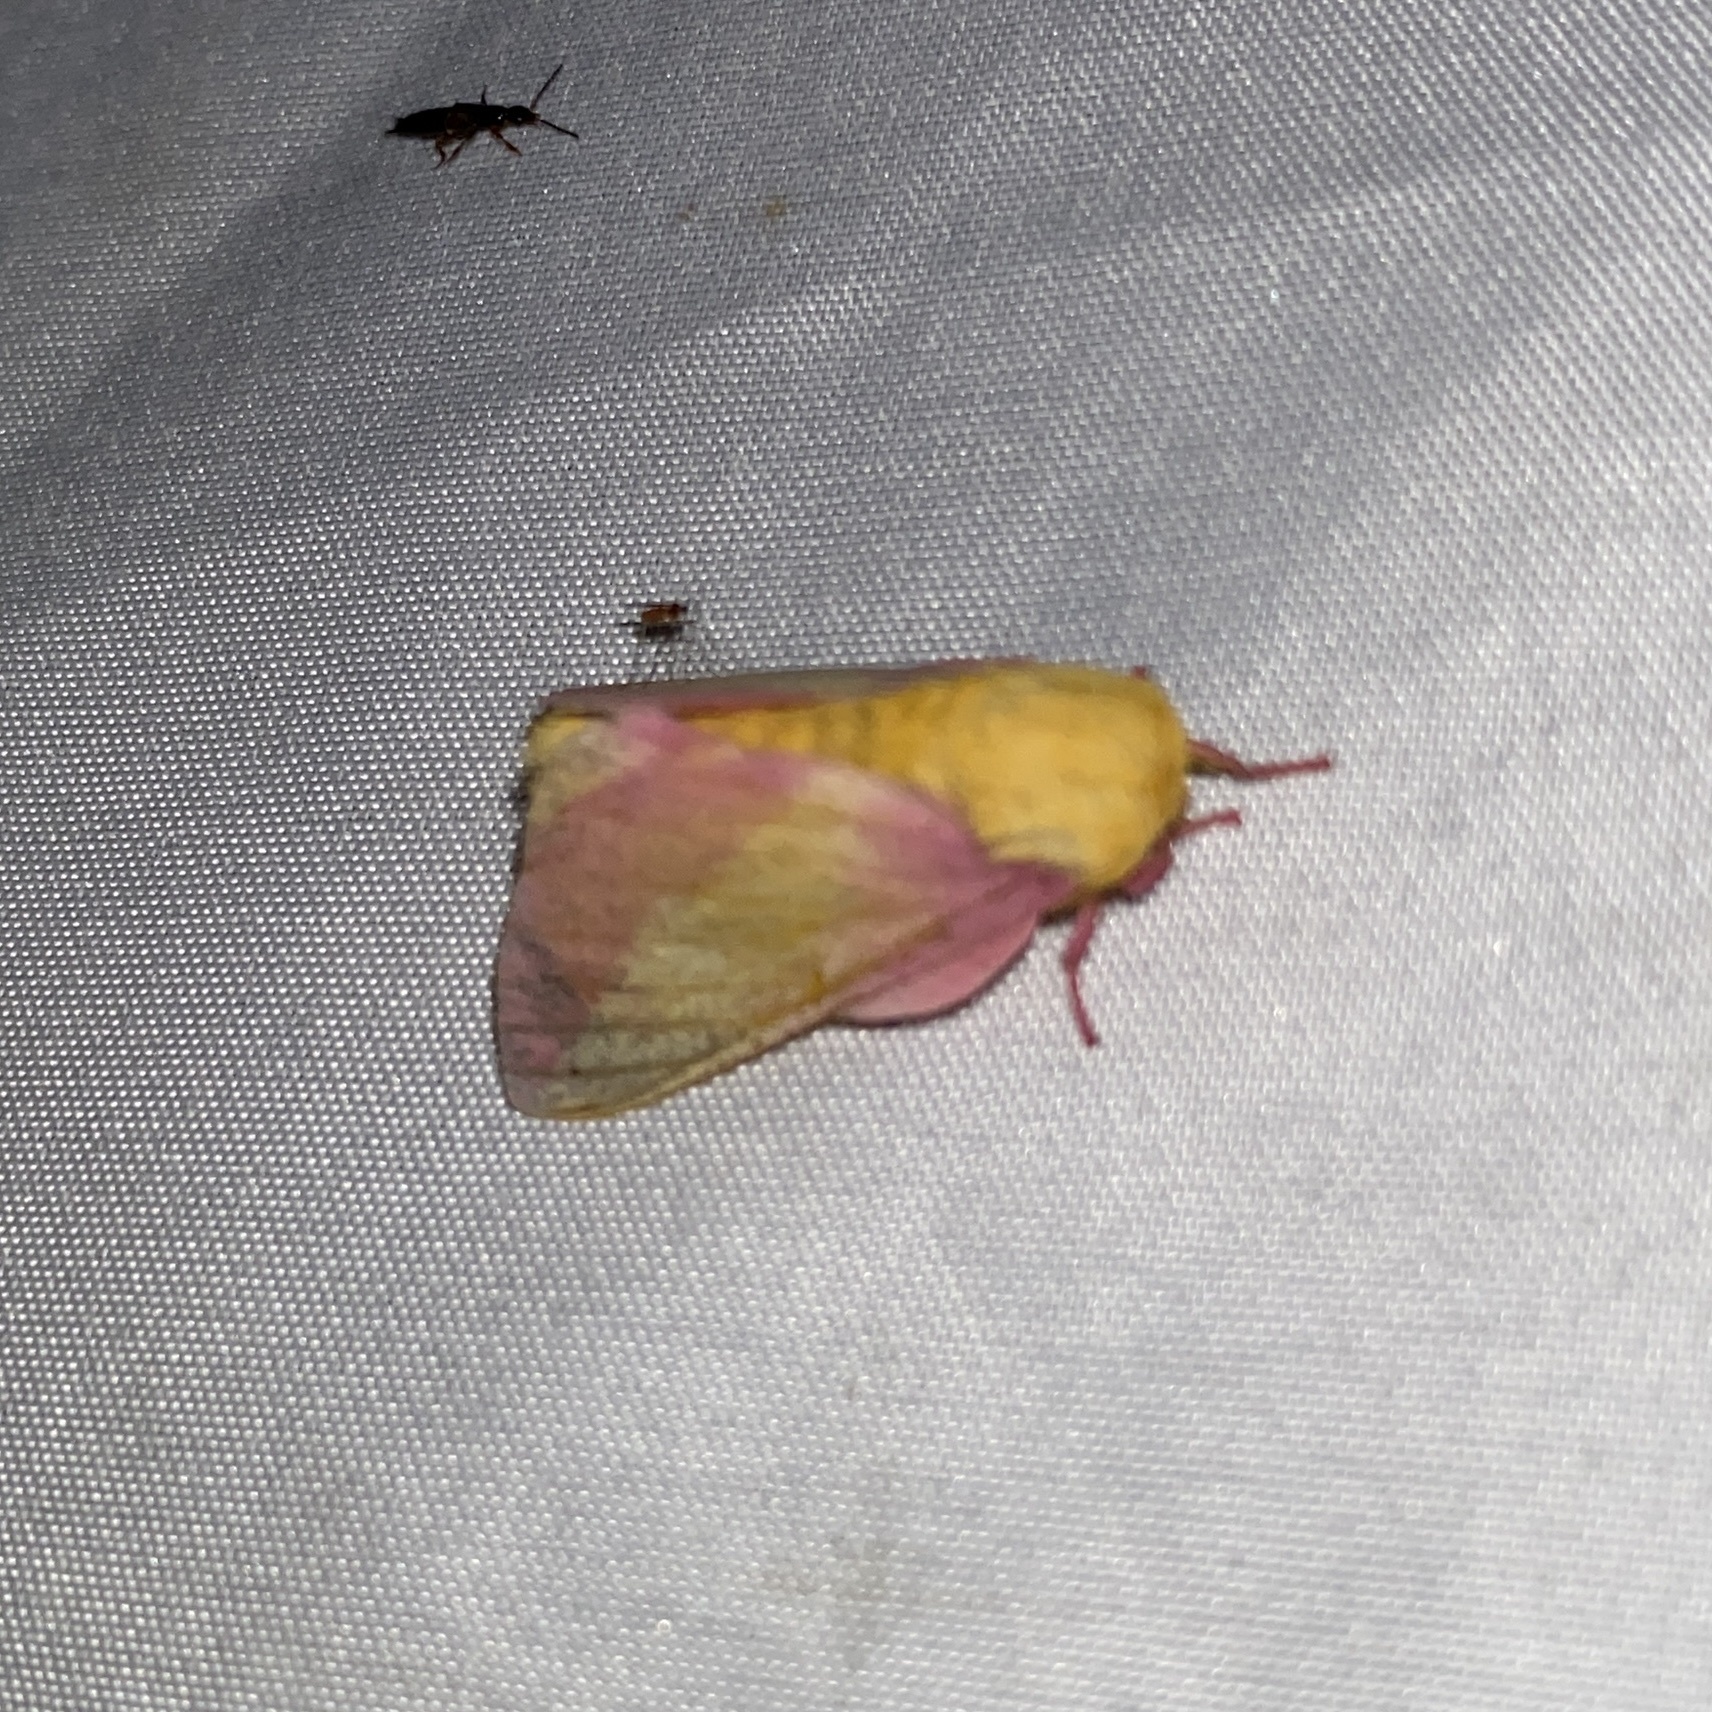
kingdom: Animalia
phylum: Arthropoda
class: Insecta
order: Lepidoptera
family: Saturniidae
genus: Dryocampa
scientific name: Dryocampa rubicunda
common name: Rosy maple moth
